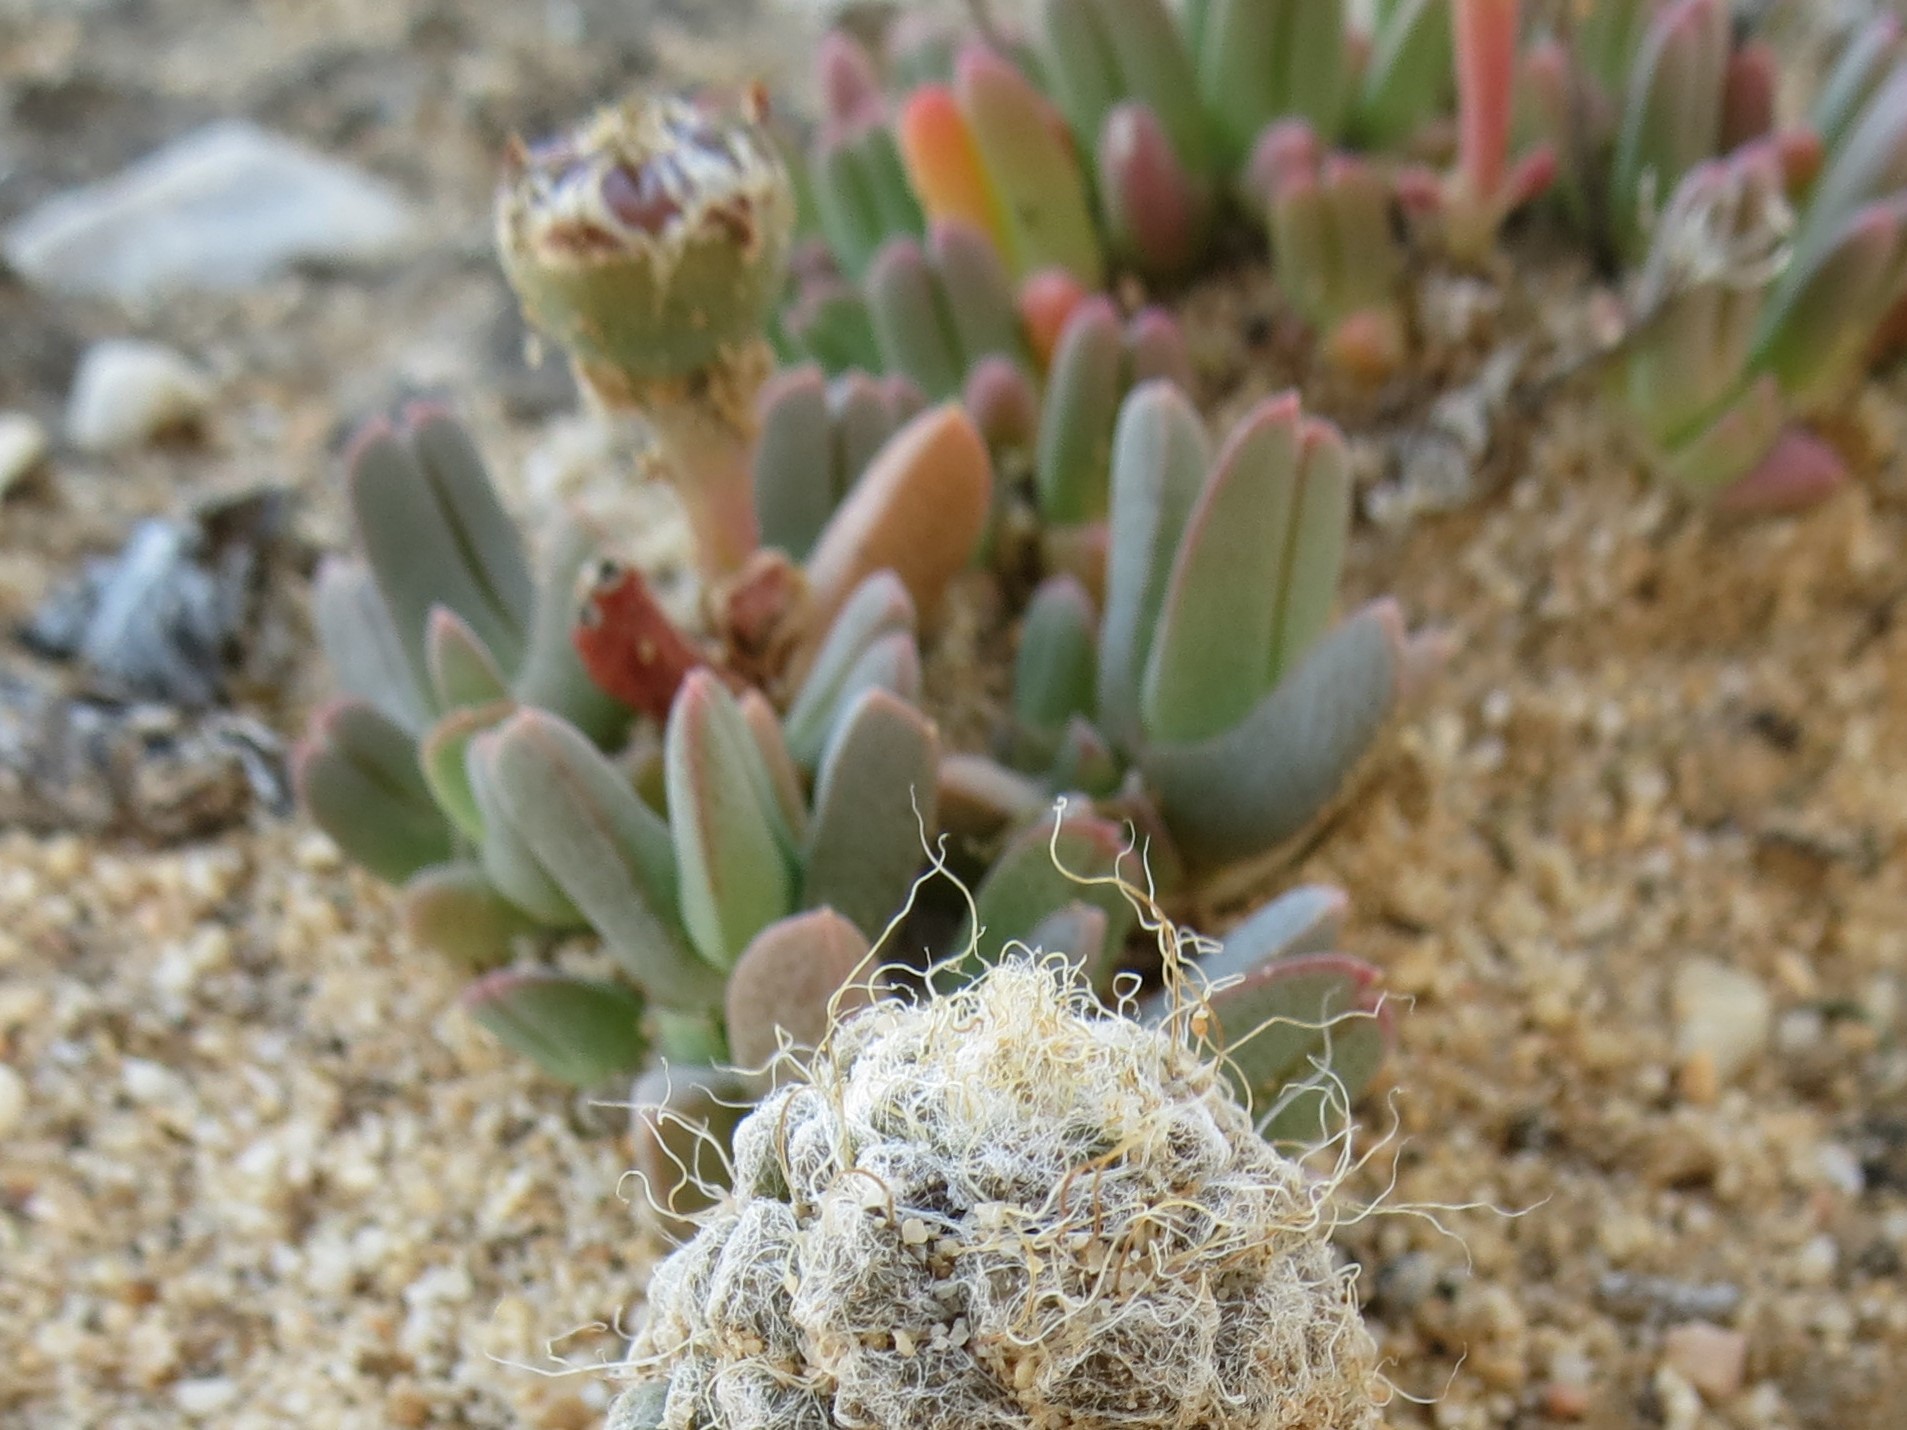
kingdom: Plantae
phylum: Tracheophyta
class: Magnoliopsida
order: Caryophyllales
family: Aizoaceae
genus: Antimima
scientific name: Antimima piscodora
